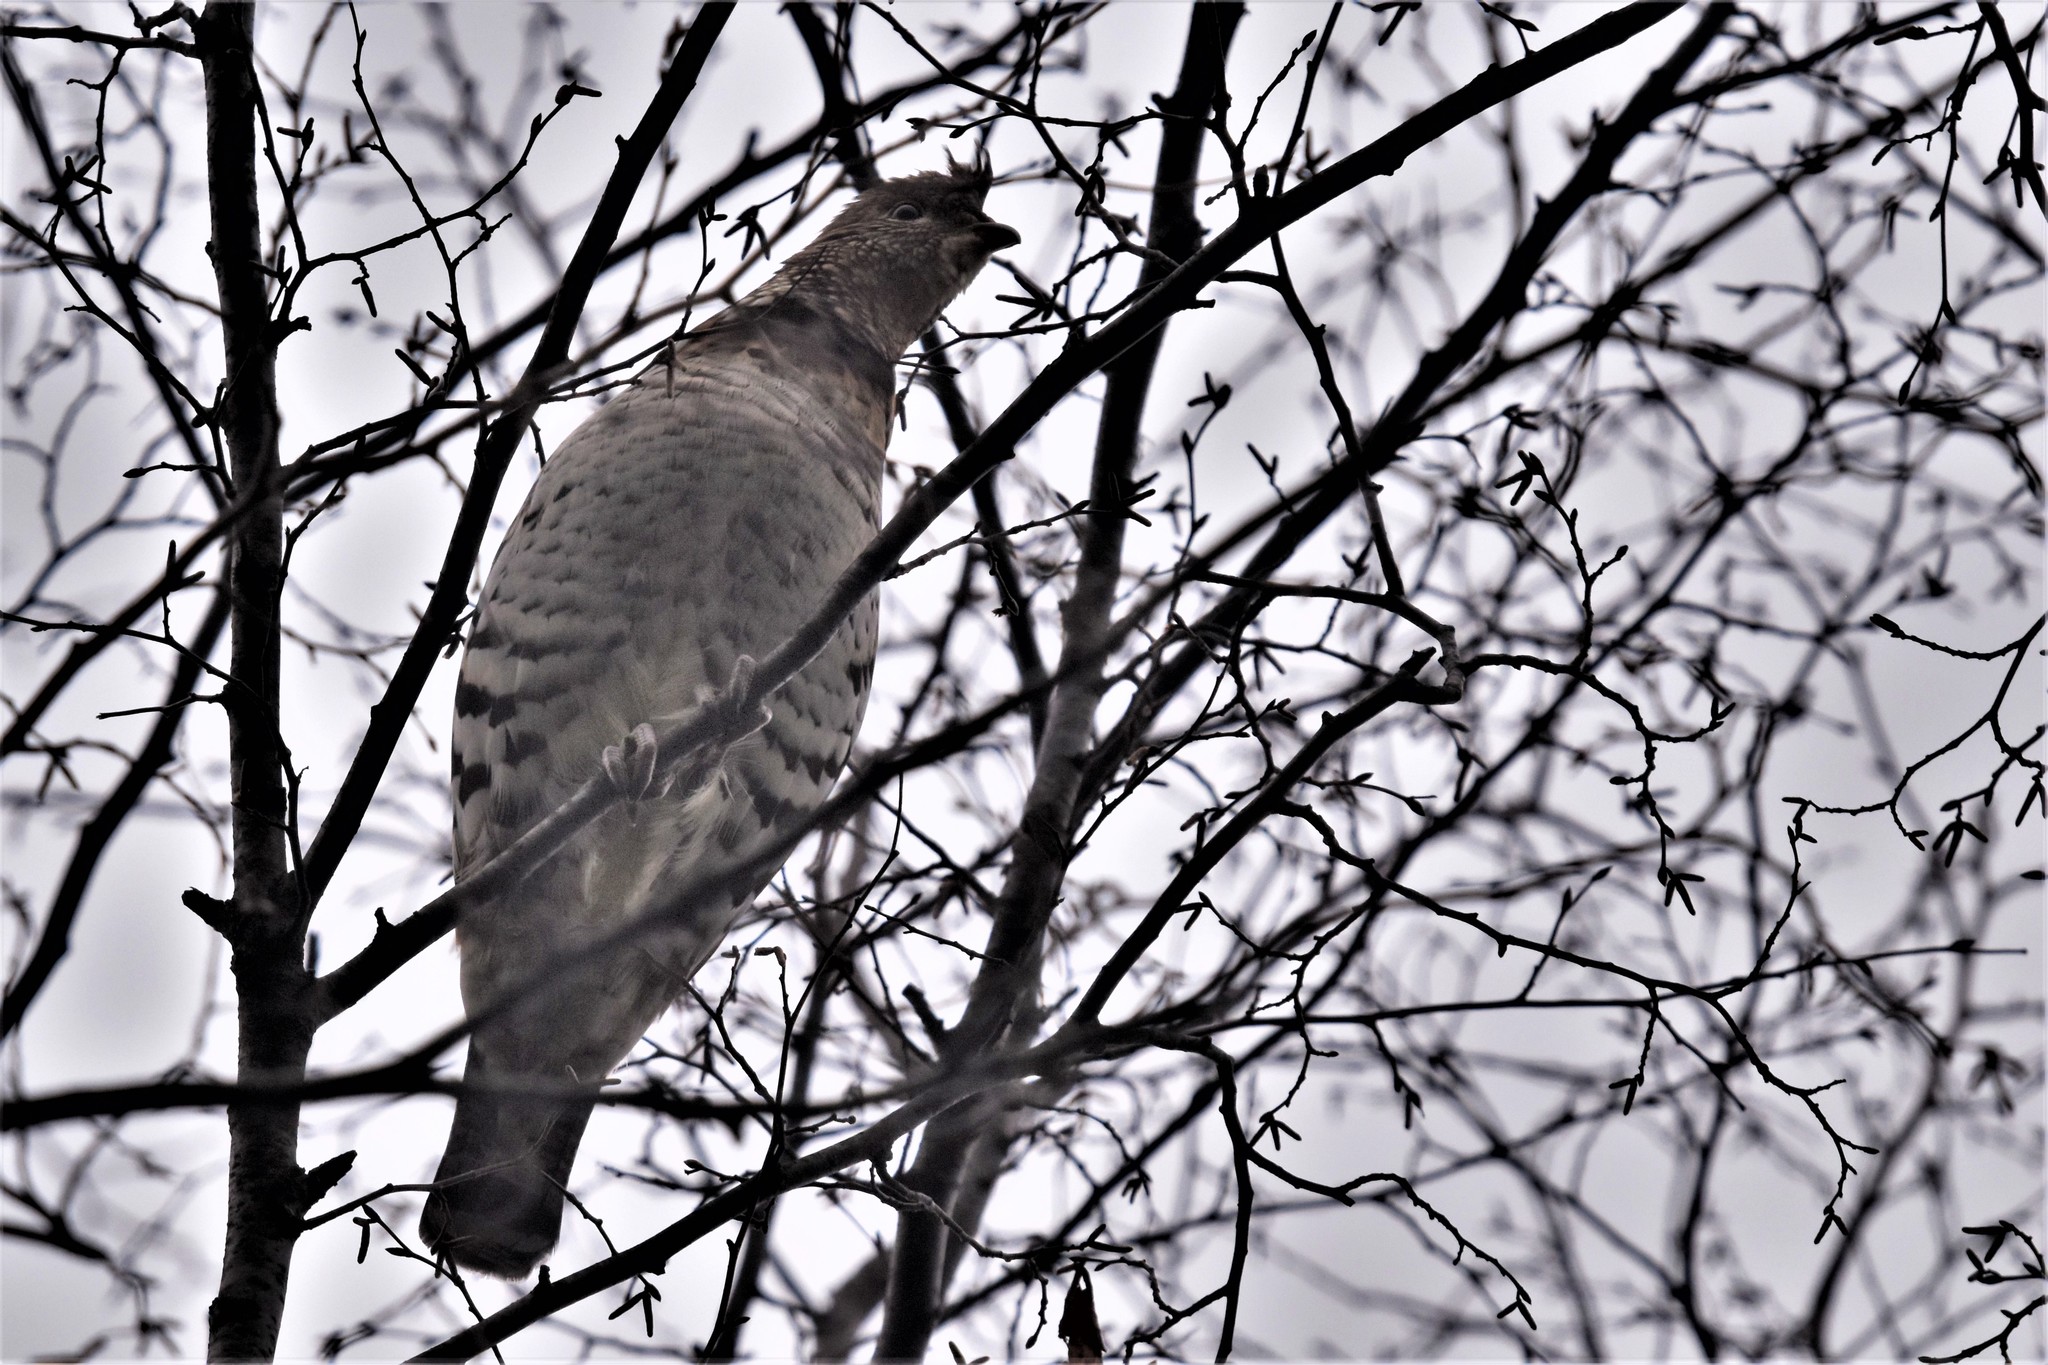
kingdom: Animalia
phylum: Chordata
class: Aves
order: Galliformes
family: Phasianidae
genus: Bonasa
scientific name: Bonasa umbellus
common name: Ruffed grouse
